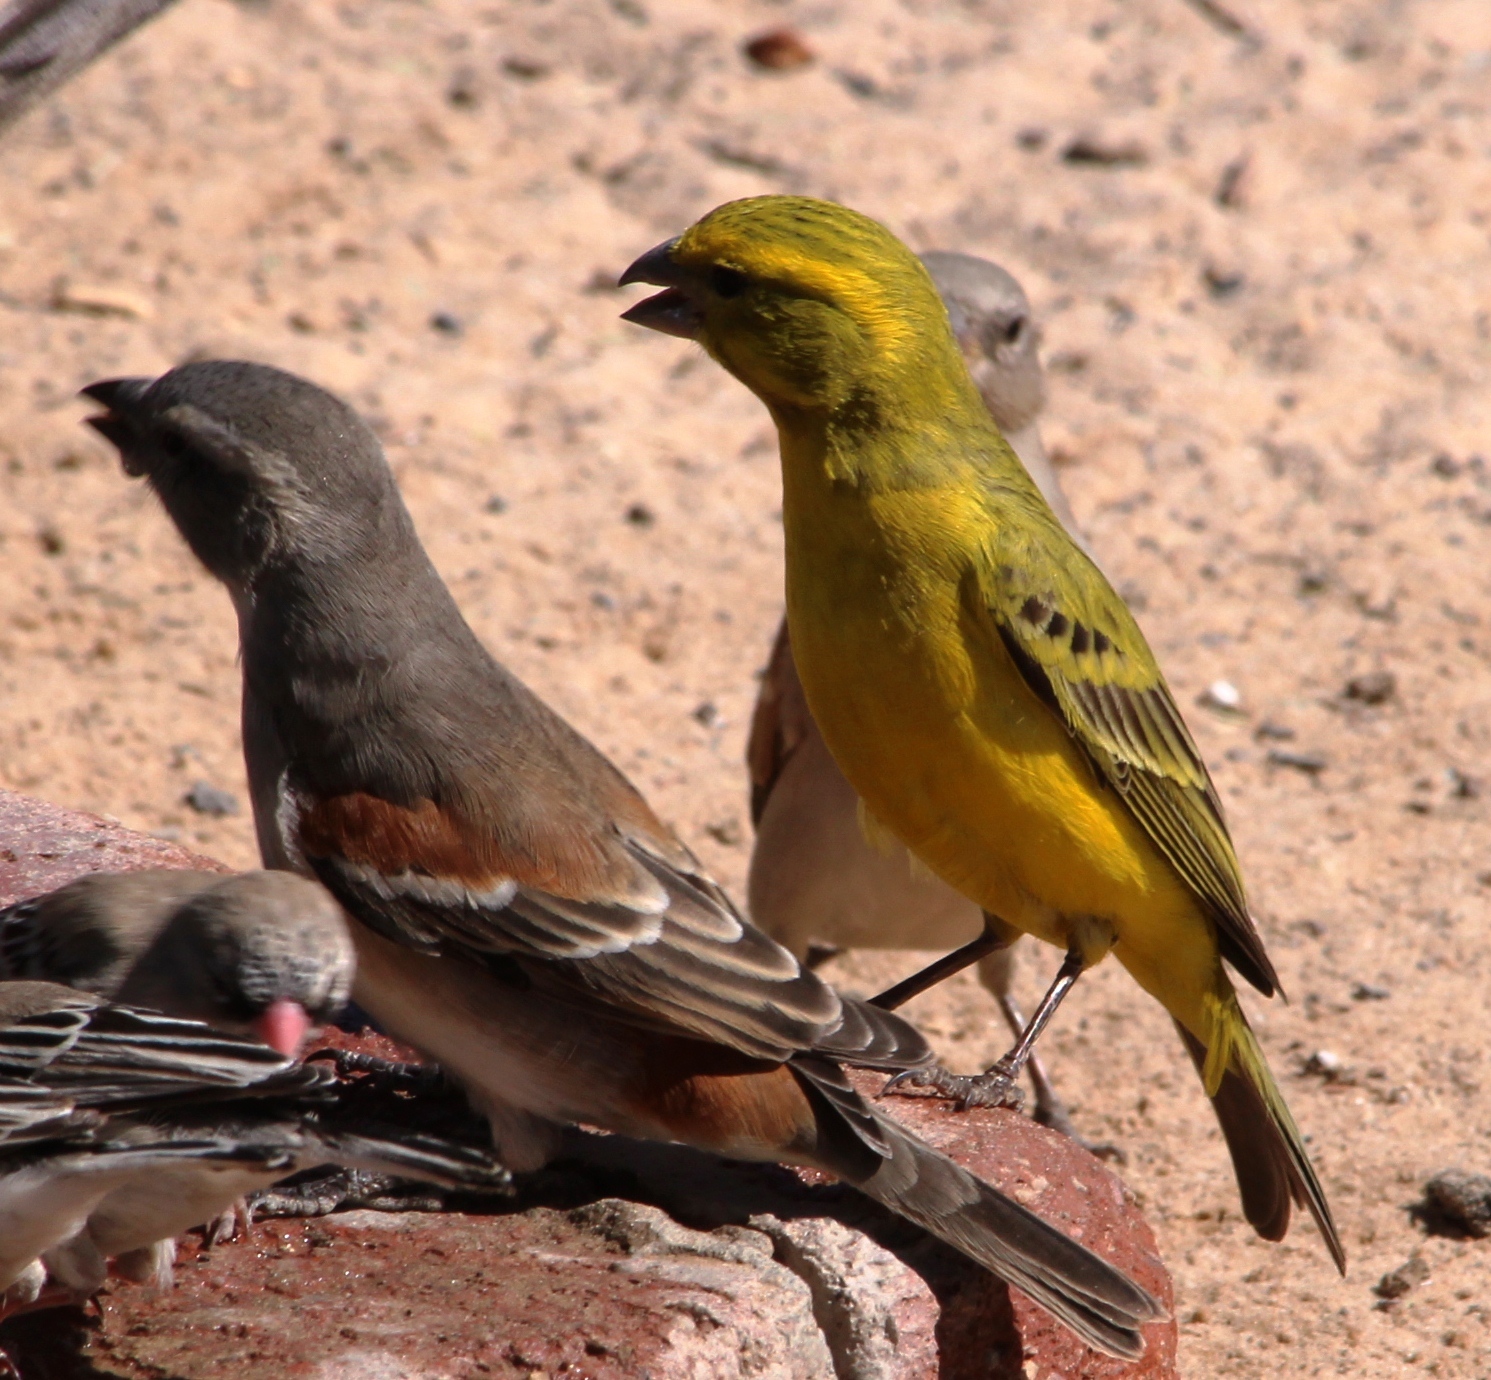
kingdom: Animalia
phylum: Chordata
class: Aves
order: Passeriformes
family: Fringillidae
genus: Crithagra
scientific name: Crithagra flaviventris
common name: Yellow canary
